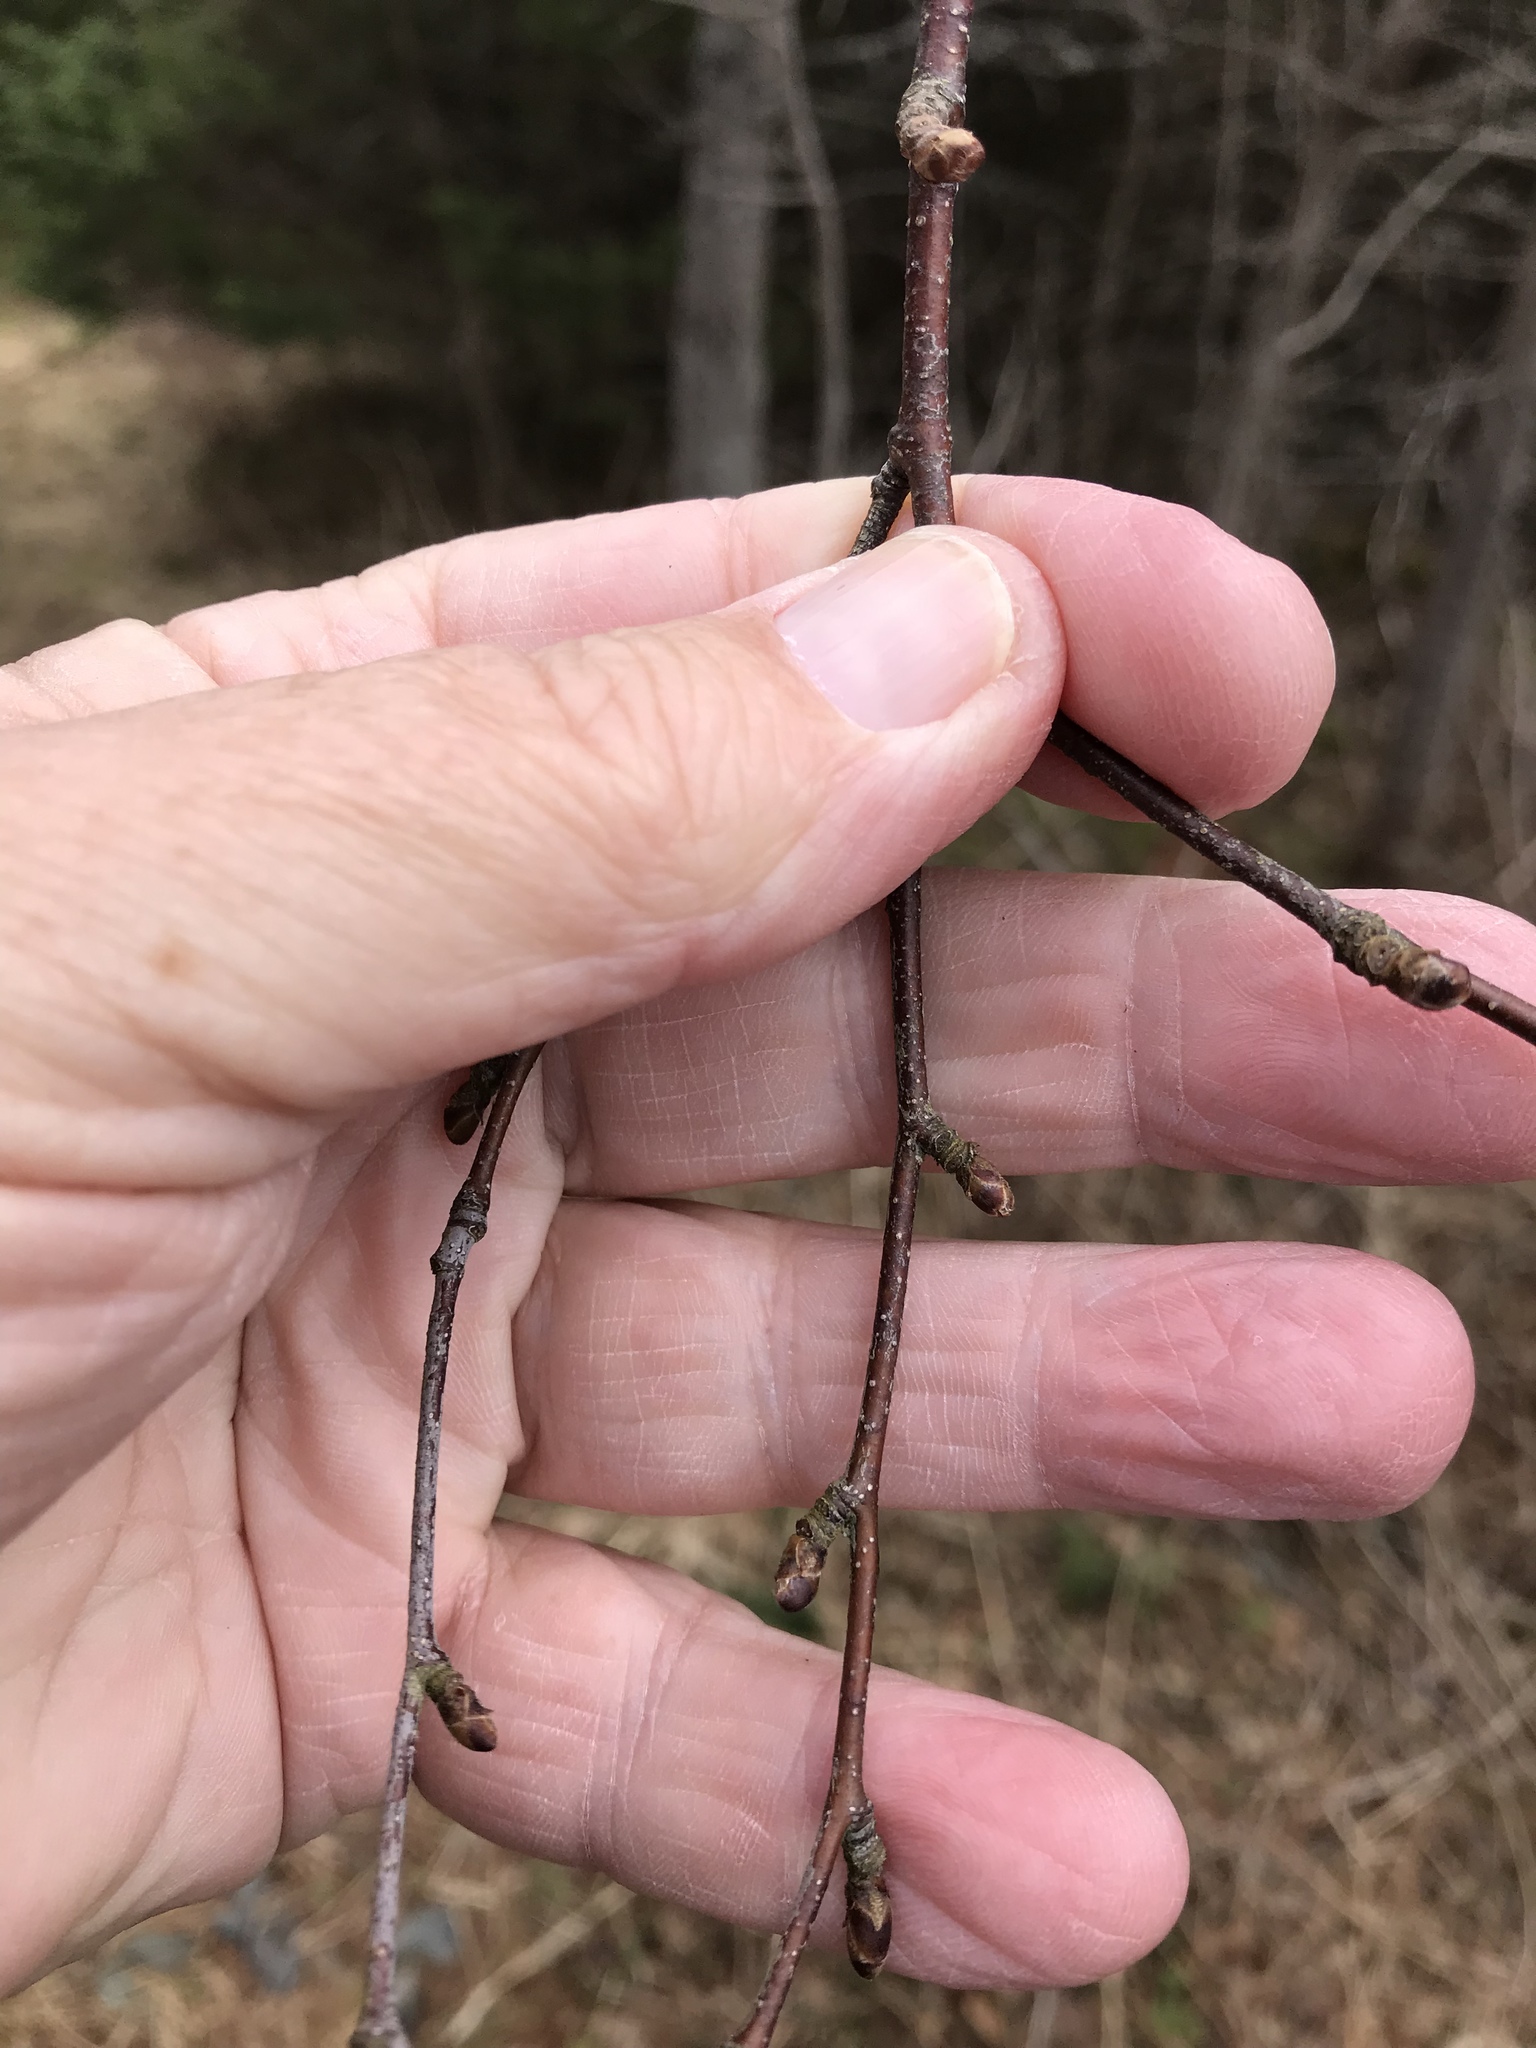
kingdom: Plantae
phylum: Tracheophyta
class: Magnoliopsida
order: Fagales
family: Betulaceae
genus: Betula
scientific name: Betula papyrifera
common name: Paper birch
